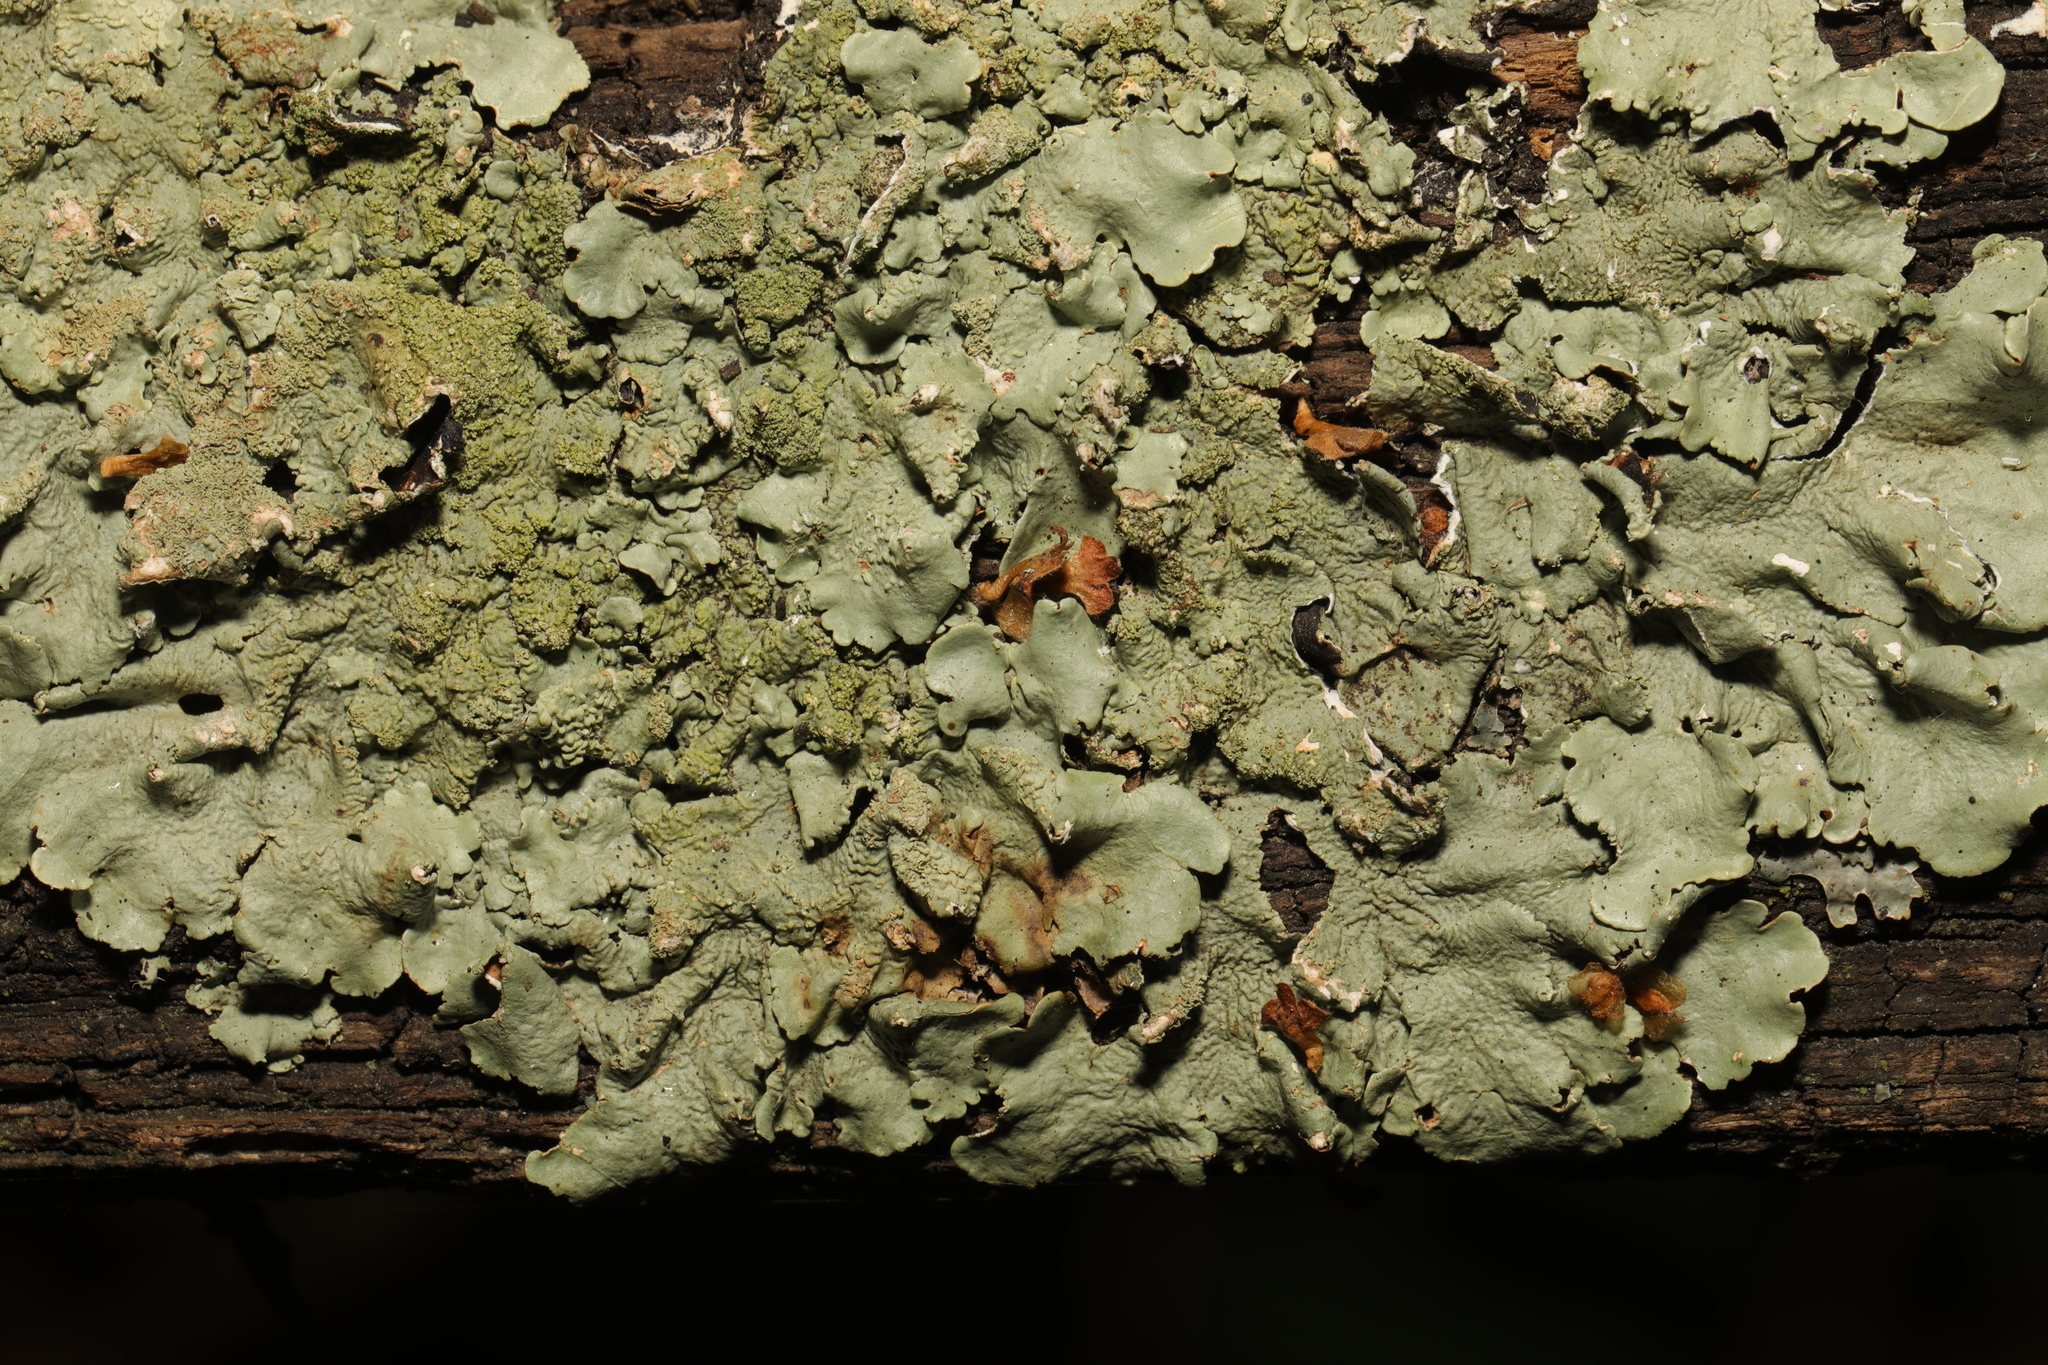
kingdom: Fungi
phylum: Ascomycota
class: Lecanoromycetes
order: Lecanorales
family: Parmeliaceae
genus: Flavoparmelia
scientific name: Flavoparmelia caperata
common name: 40-mile per hour lichen
